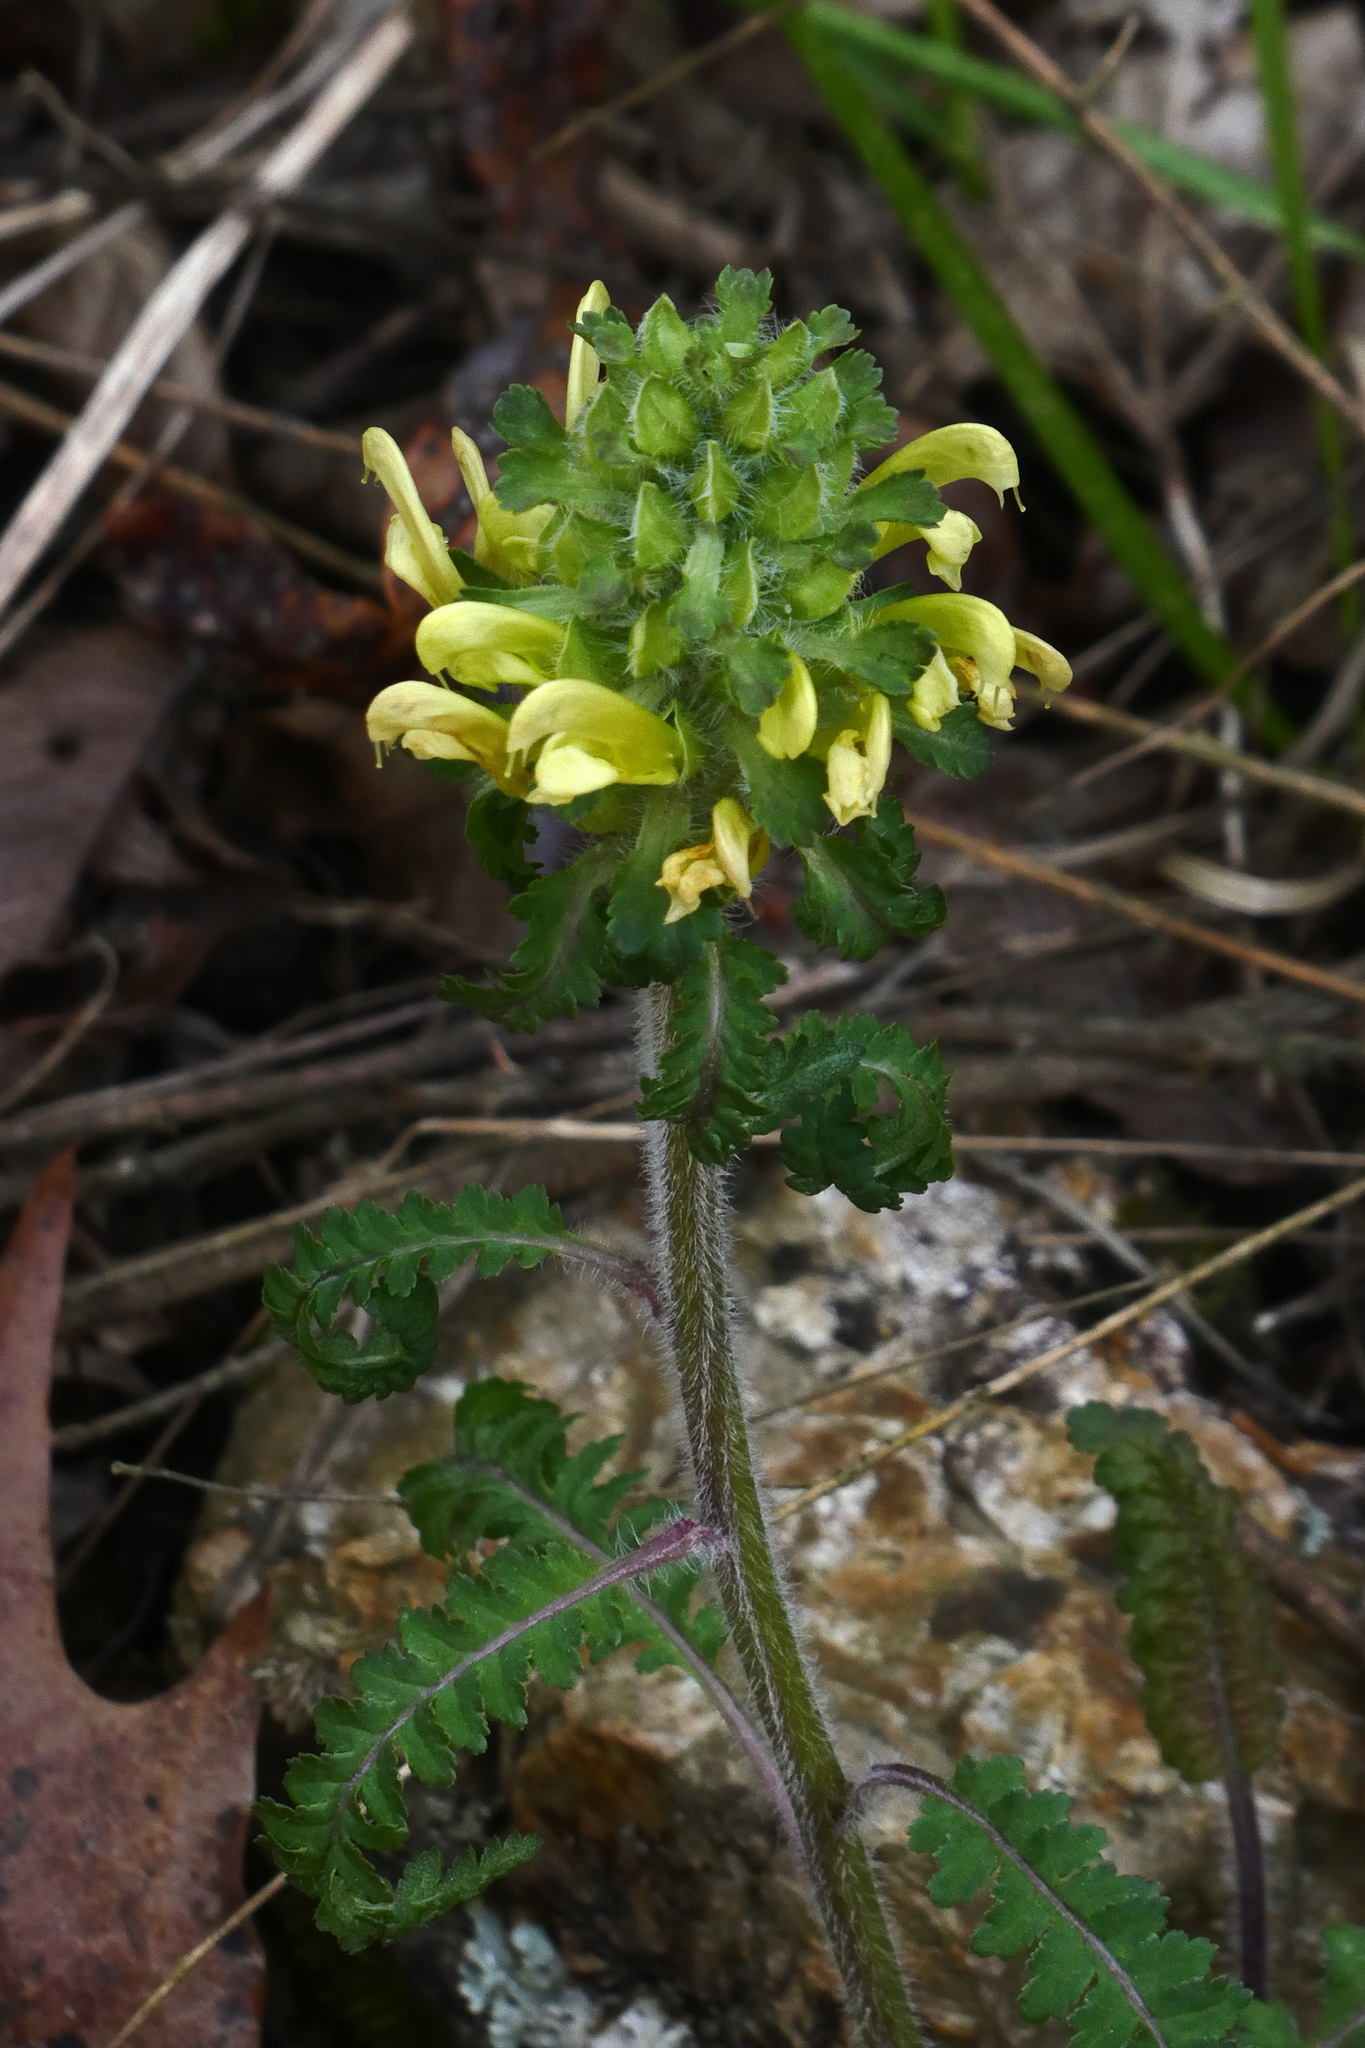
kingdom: Plantae
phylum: Tracheophyta
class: Magnoliopsida
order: Lamiales
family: Orobanchaceae
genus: Pedicularis
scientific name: Pedicularis canadensis
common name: Early lousewort
